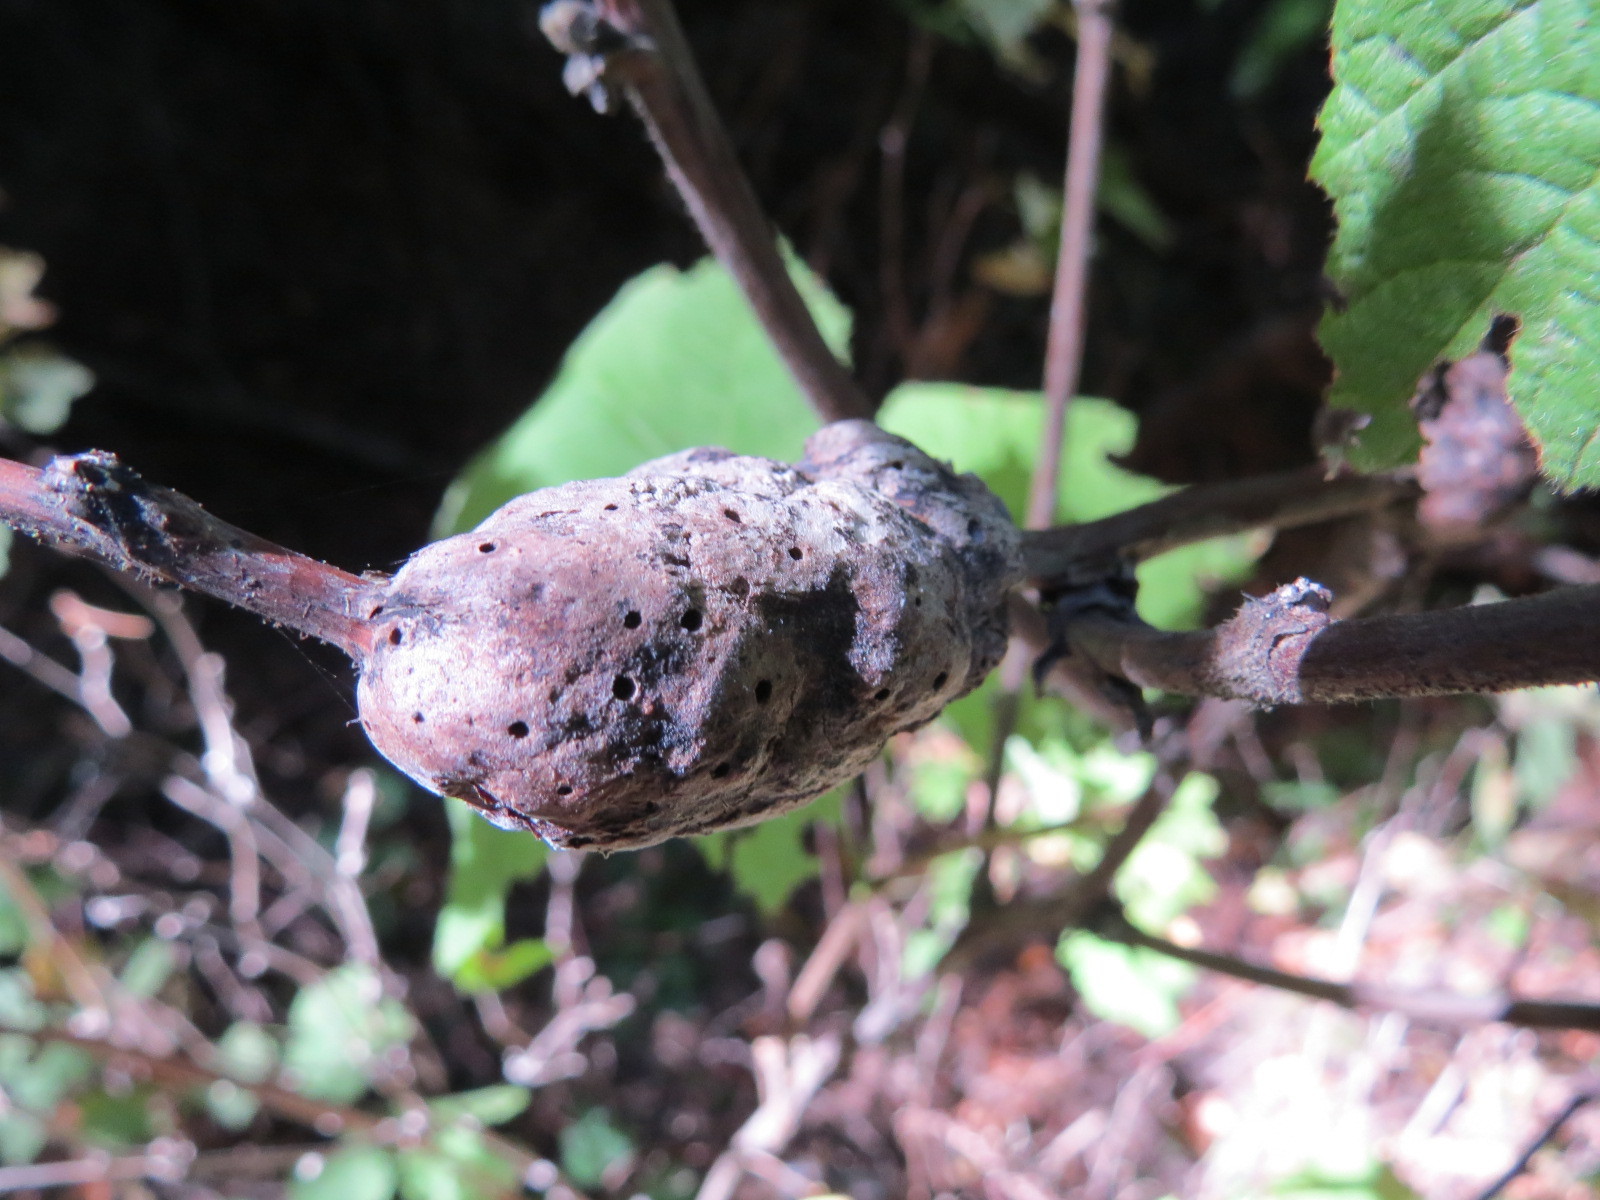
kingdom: Animalia
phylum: Arthropoda
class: Insecta
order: Hymenoptera
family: Cynipidae
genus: Diastrophus
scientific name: Diastrophus
